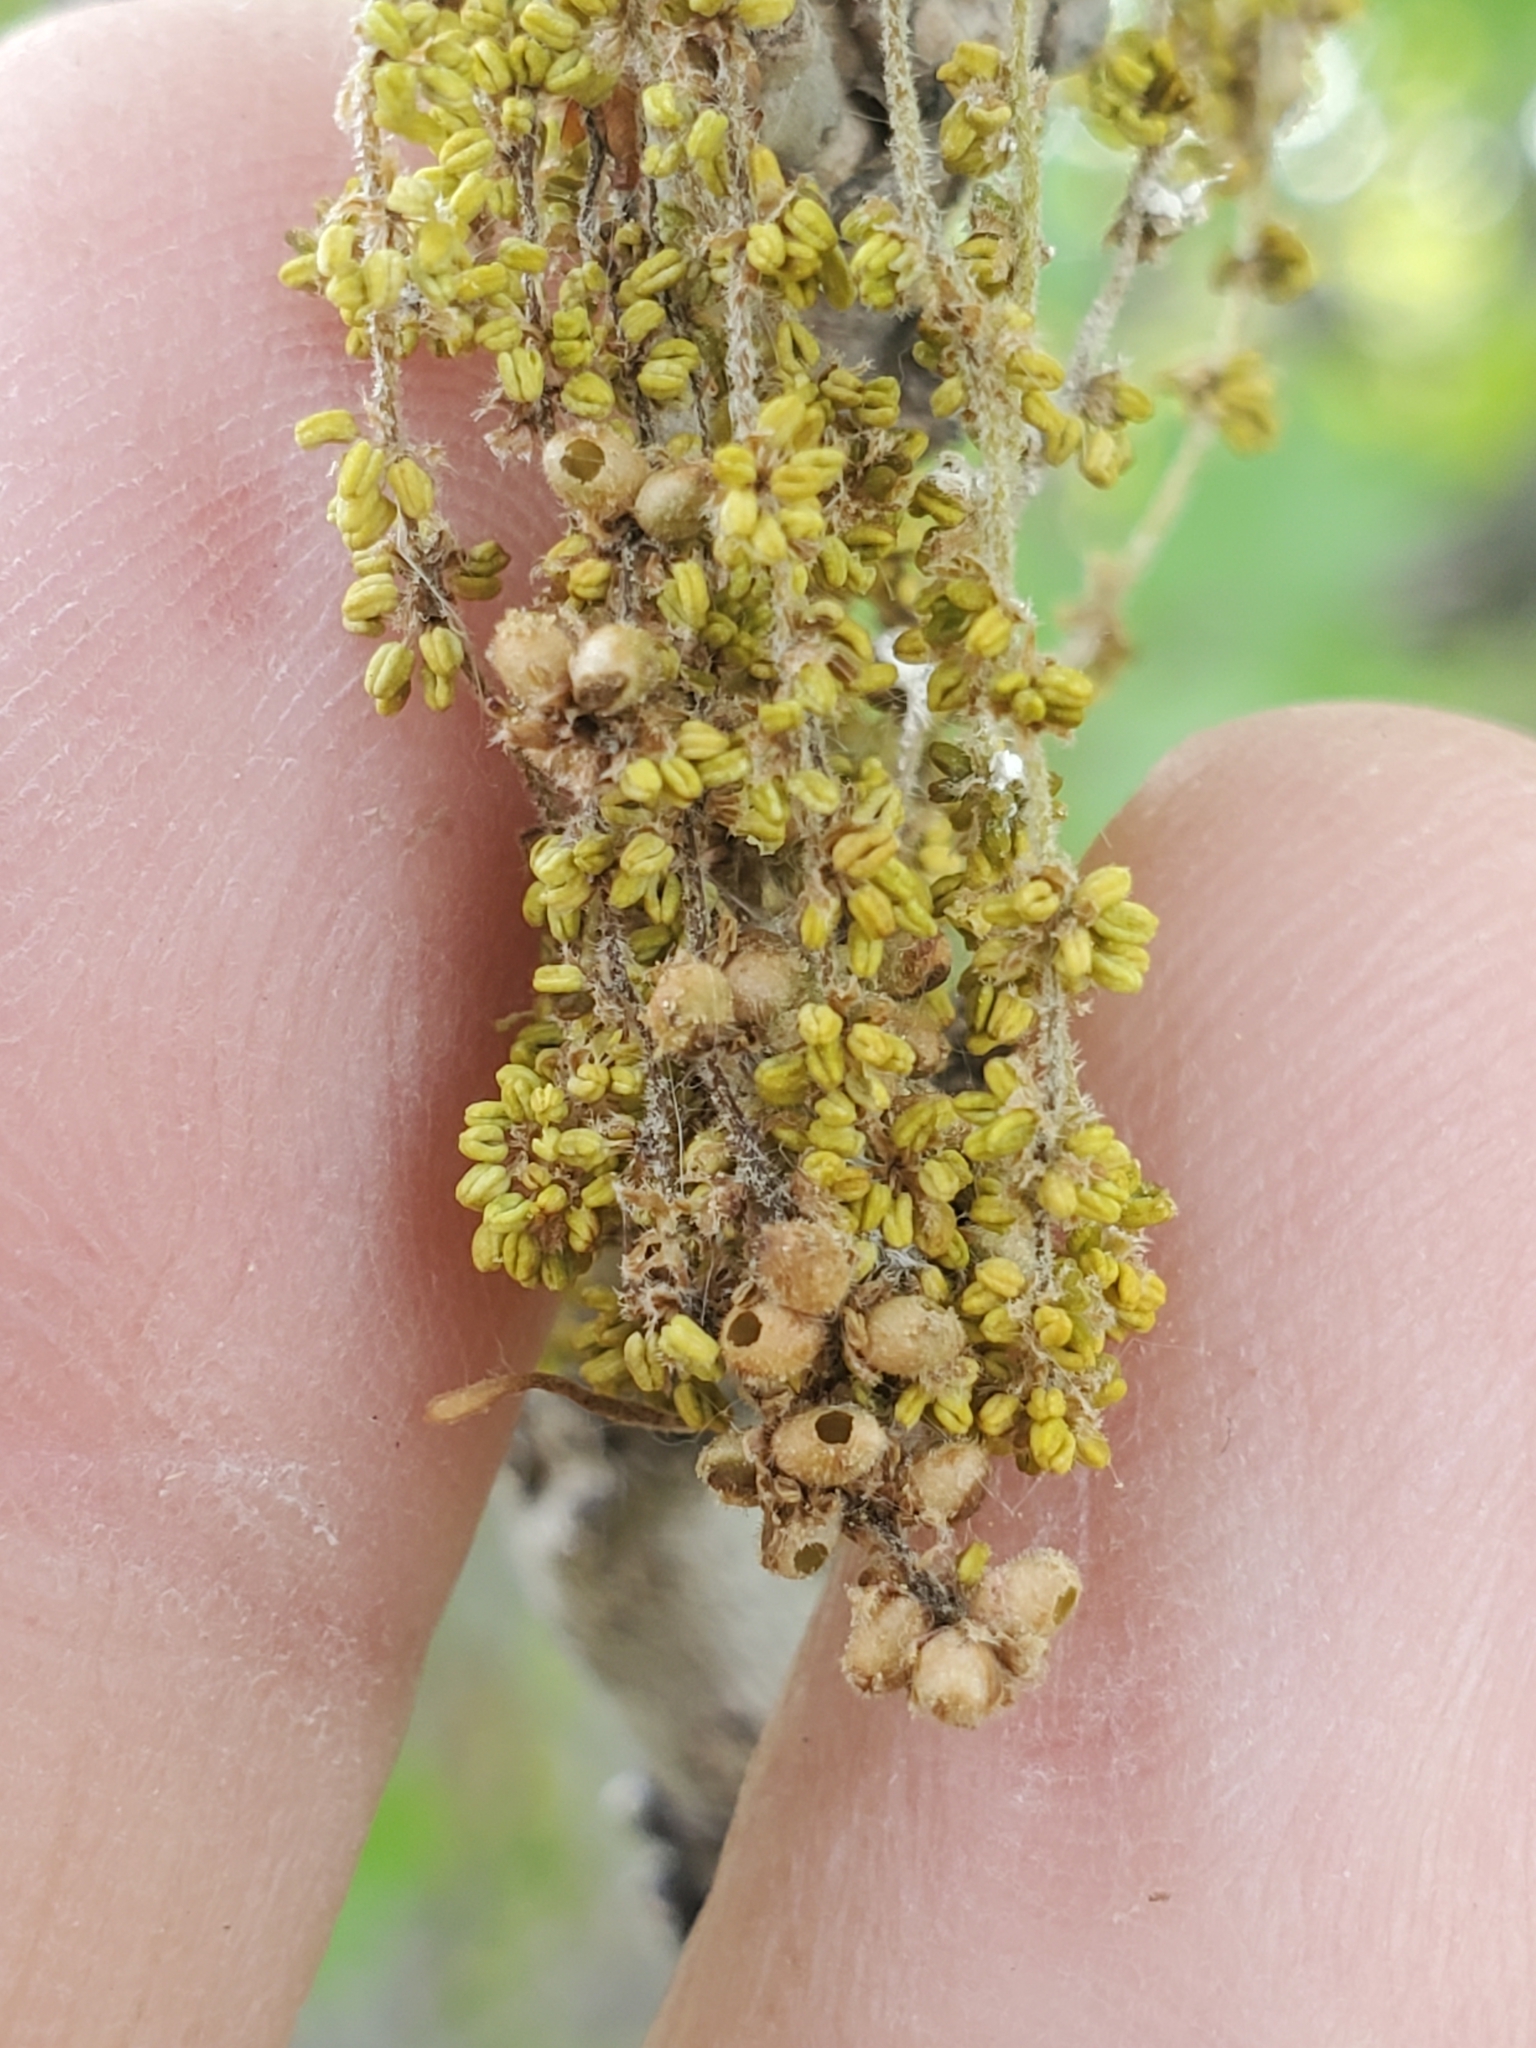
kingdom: Animalia
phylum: Arthropoda
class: Insecta
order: Hymenoptera
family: Cynipidae
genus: Neuroterus
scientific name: Neuroterus pallidus
